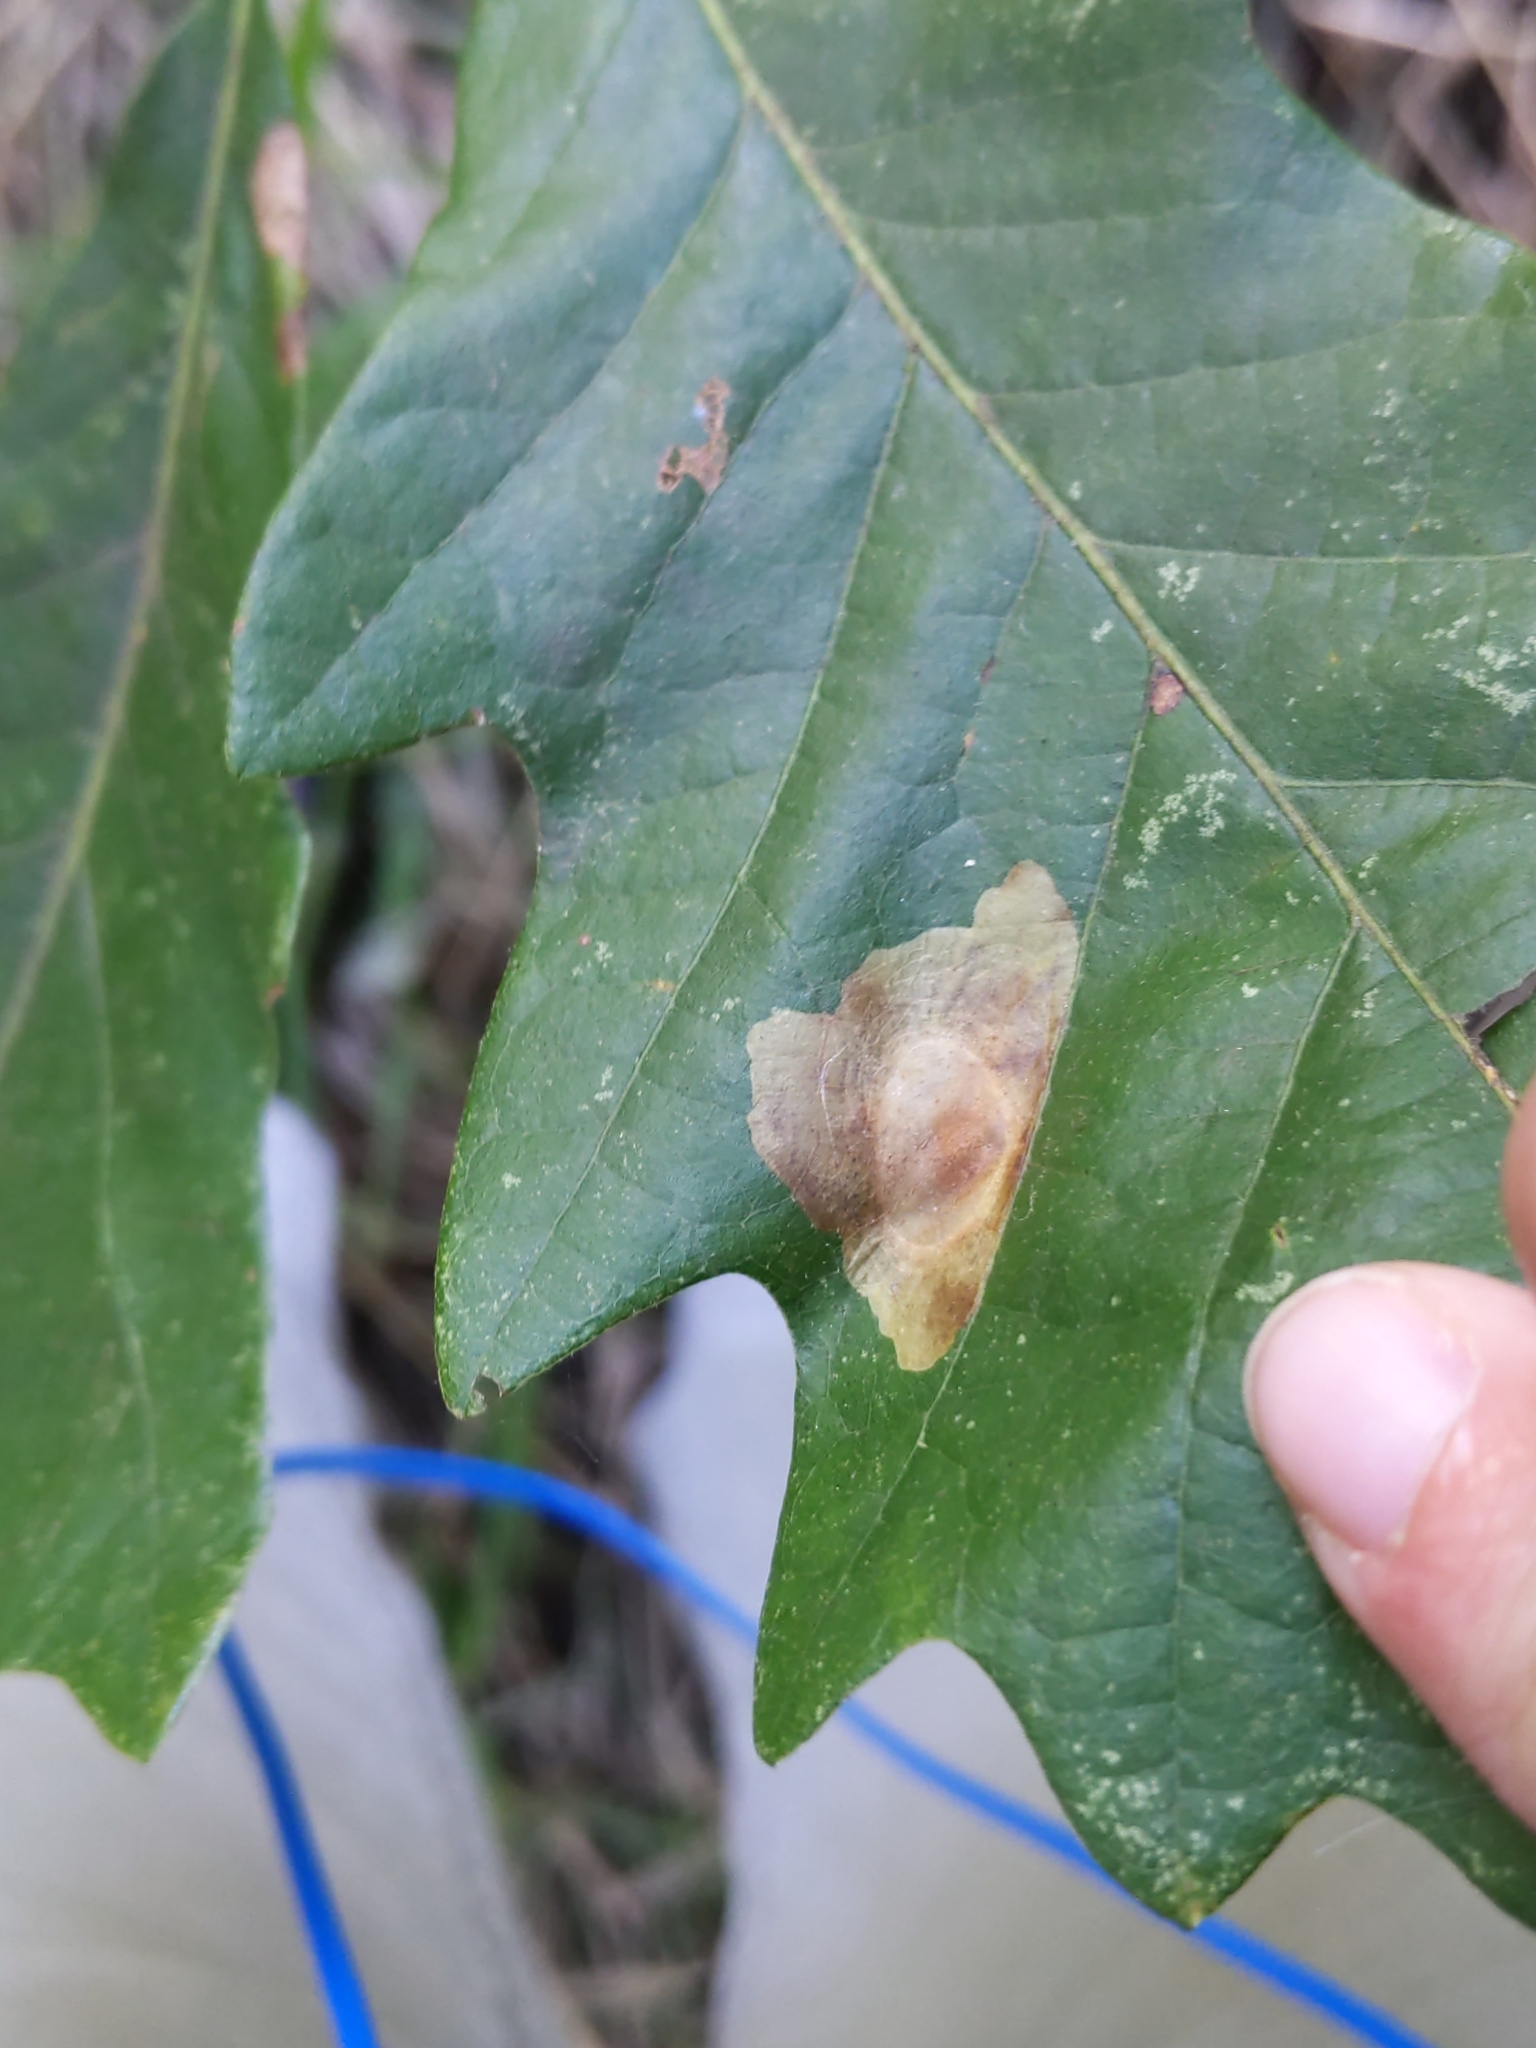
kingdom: Animalia
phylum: Arthropoda
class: Insecta
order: Lepidoptera
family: Gracillariidae
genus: Cameraria
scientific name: Cameraria
